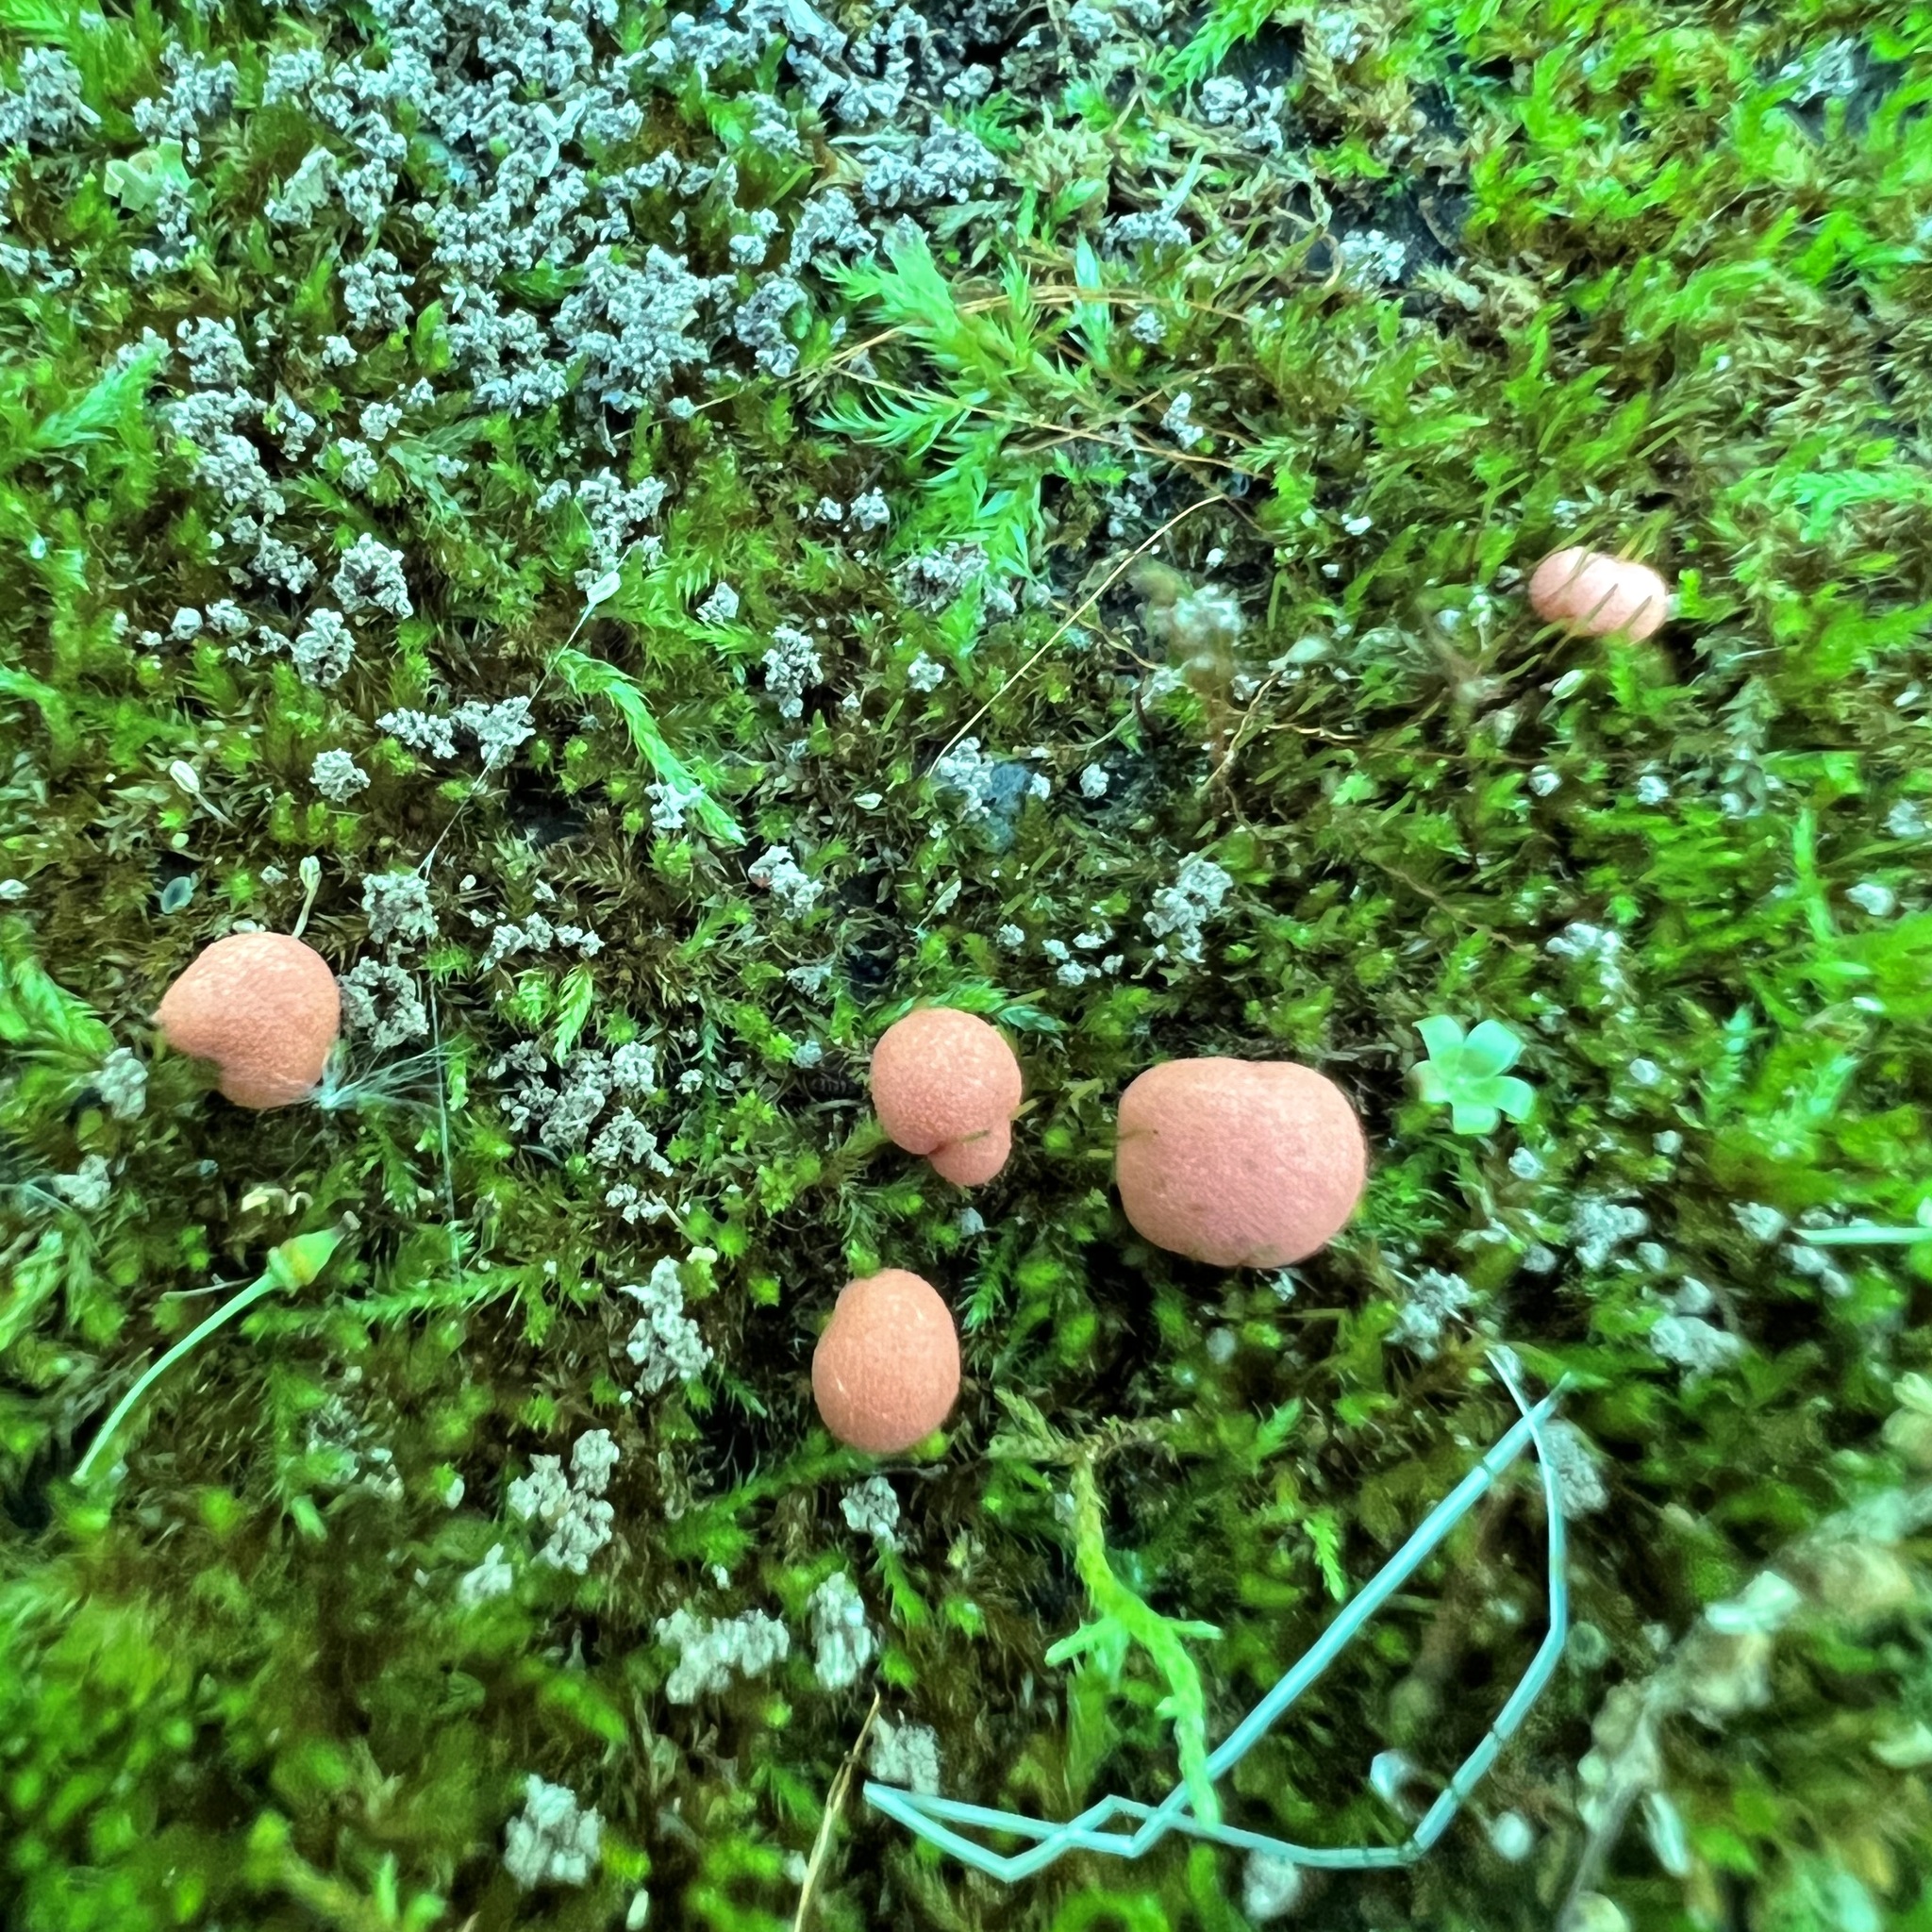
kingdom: Protozoa
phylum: Mycetozoa
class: Myxomycetes
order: Cribrariales
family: Tubiferaceae
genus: Lycogala
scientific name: Lycogala epidendrum
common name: Wolf's milk
